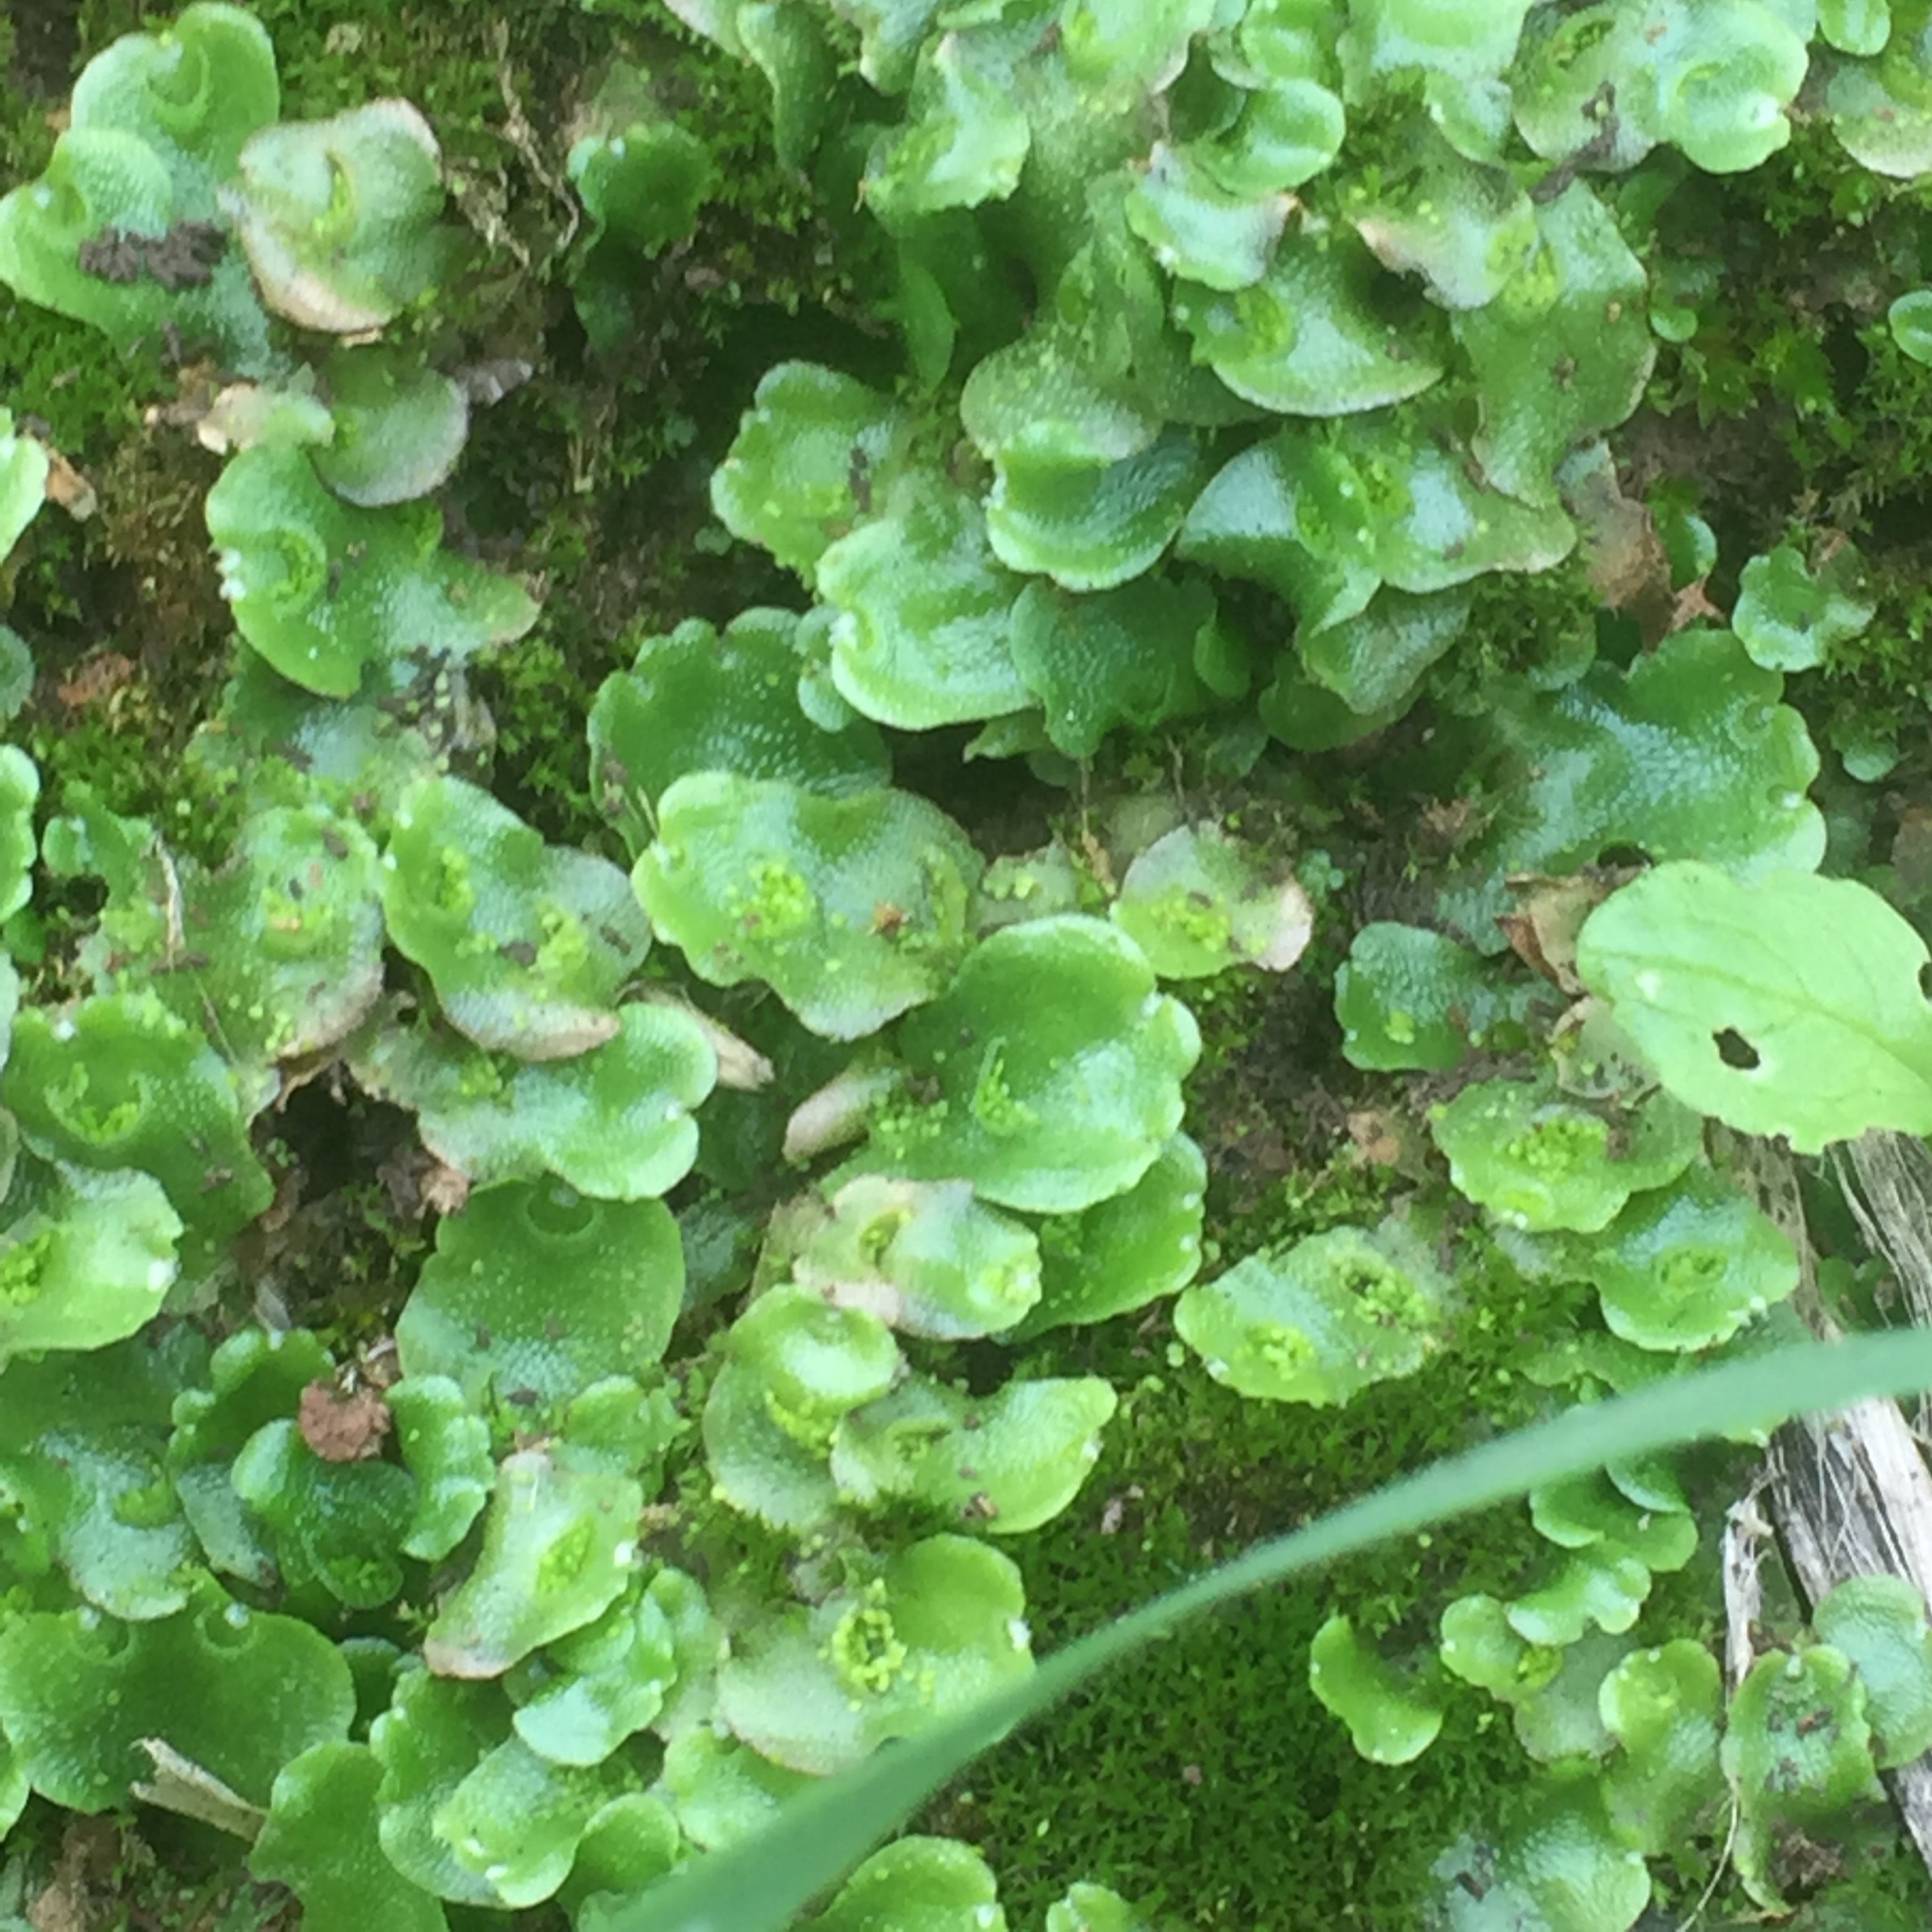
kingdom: Plantae
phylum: Marchantiophyta
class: Marchantiopsida
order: Lunulariales
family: Lunulariaceae
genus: Lunularia
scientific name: Lunularia cruciata
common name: Crescent-cup liverwort
